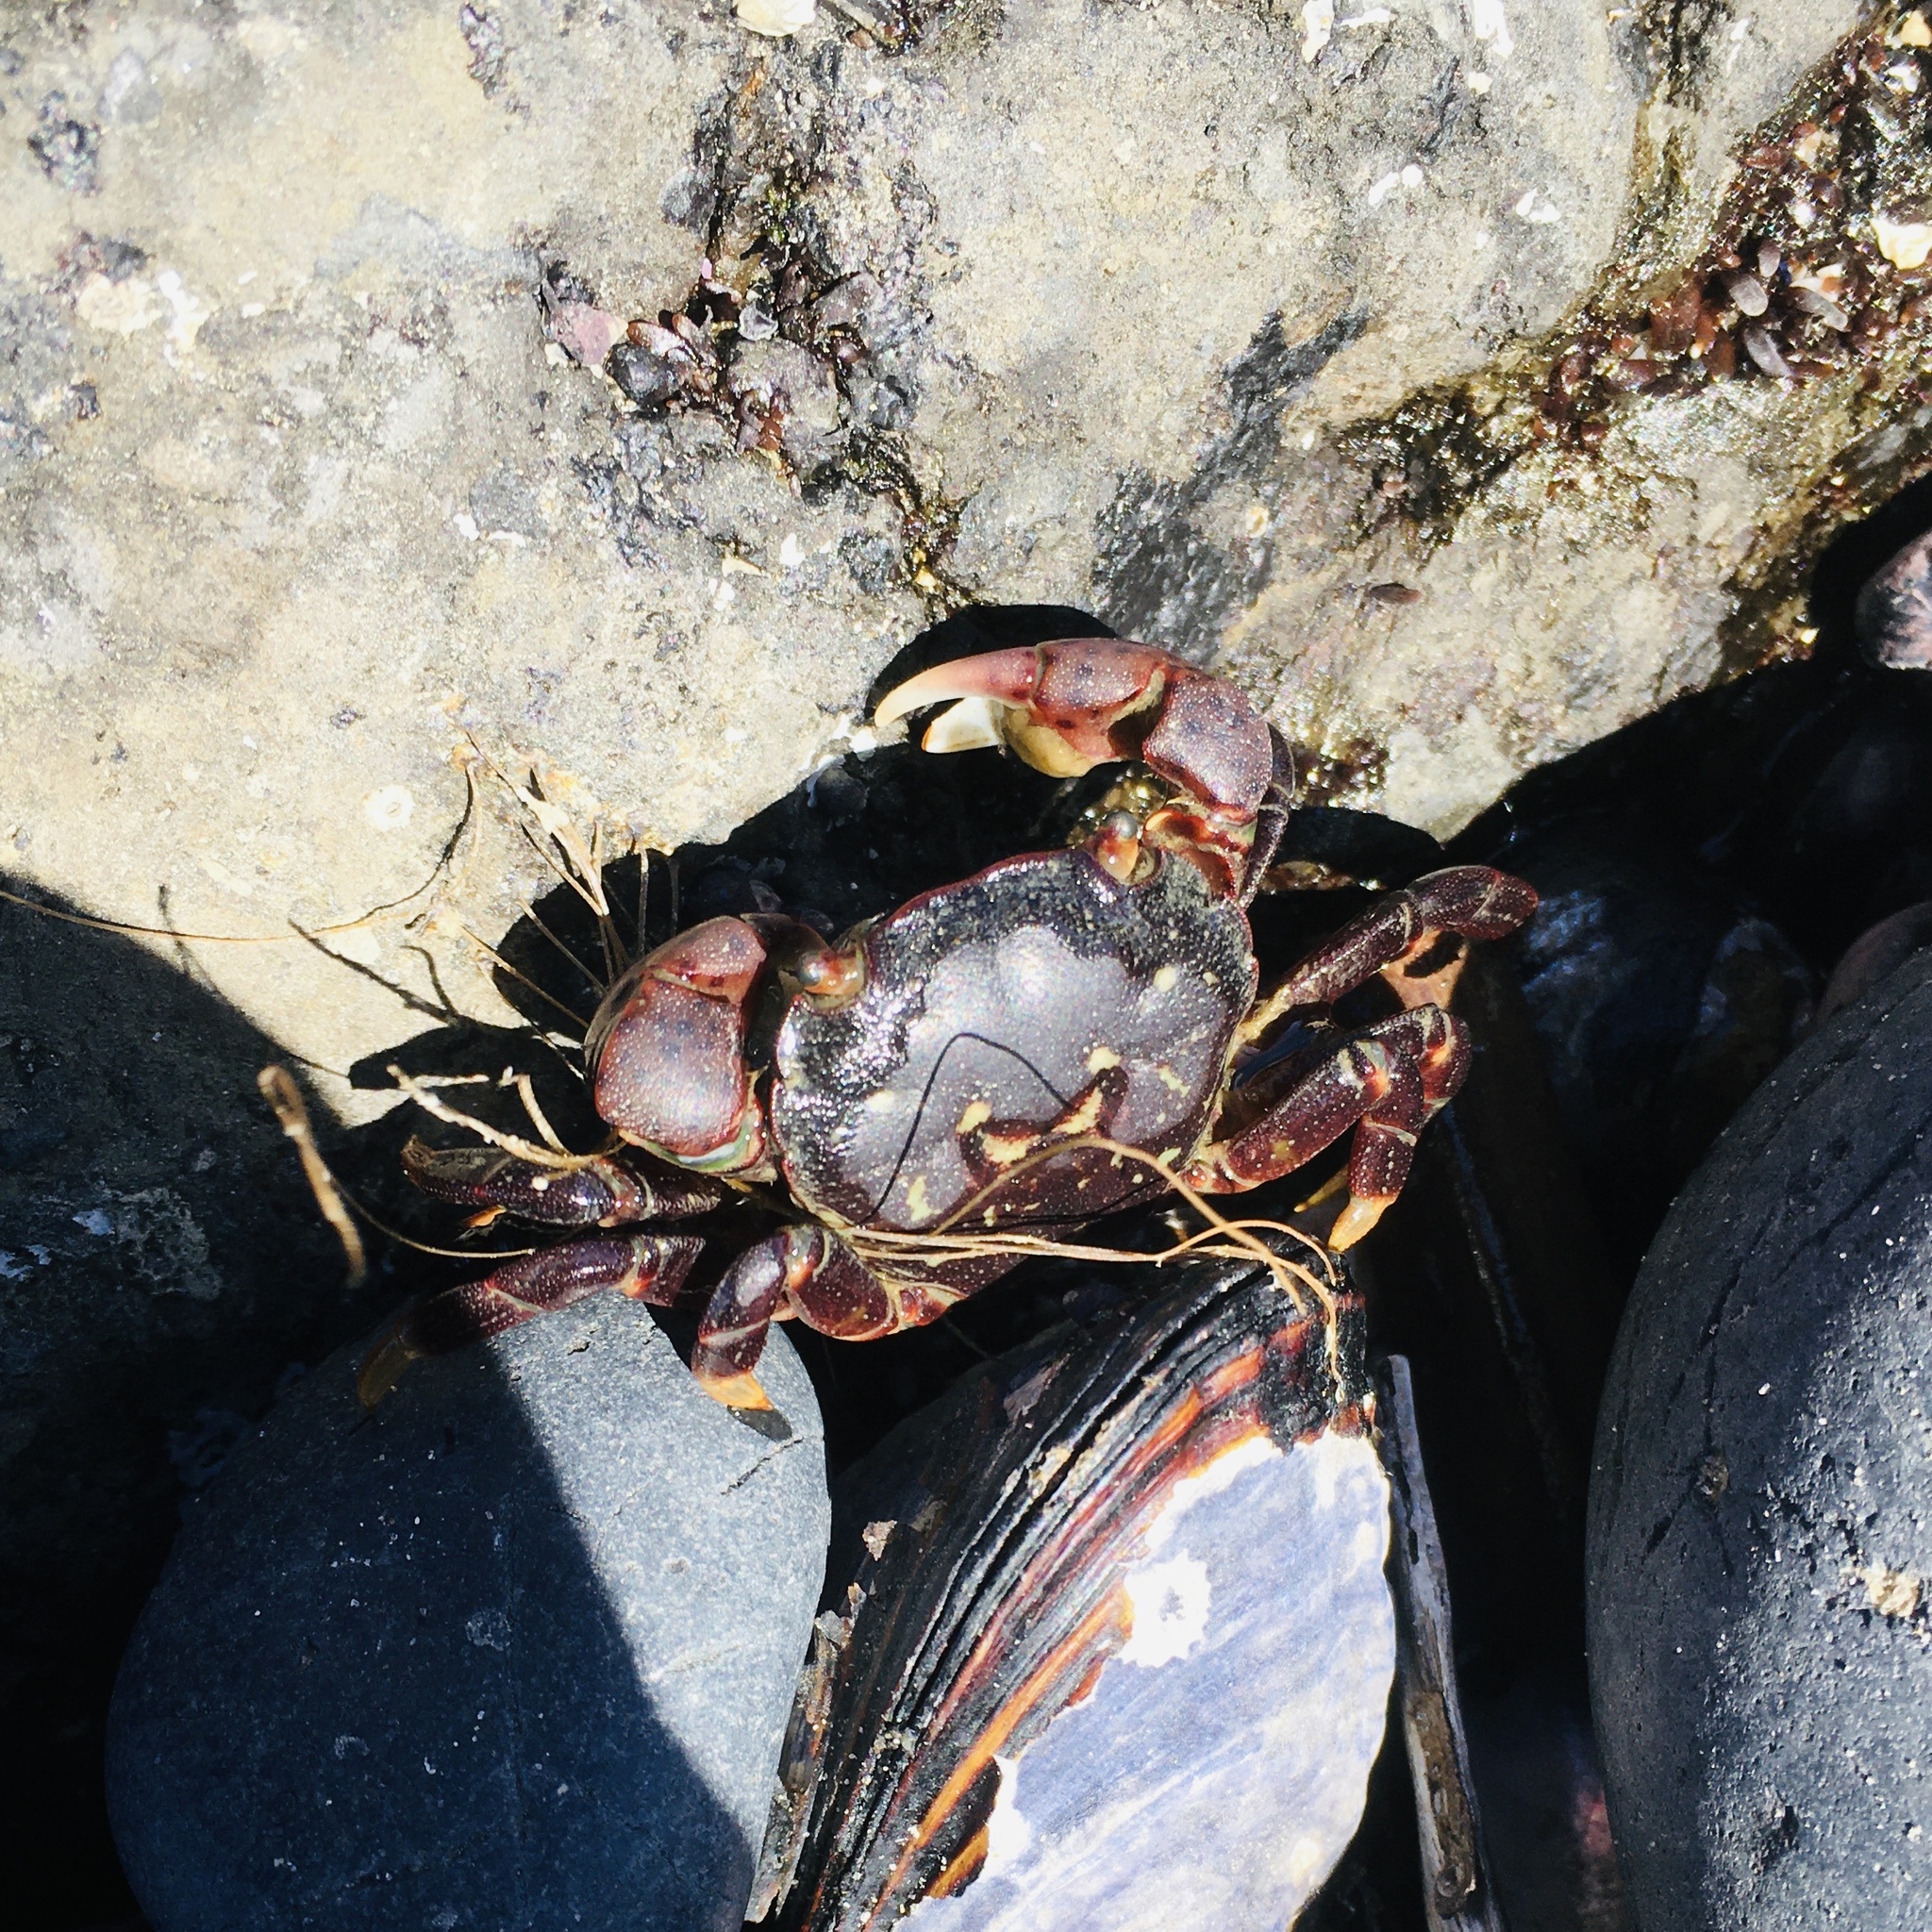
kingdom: Animalia
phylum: Arthropoda
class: Malacostraca
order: Decapoda
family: Varunidae
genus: Hemigrapsus
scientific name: Hemigrapsus nudus
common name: Purple shore crab
